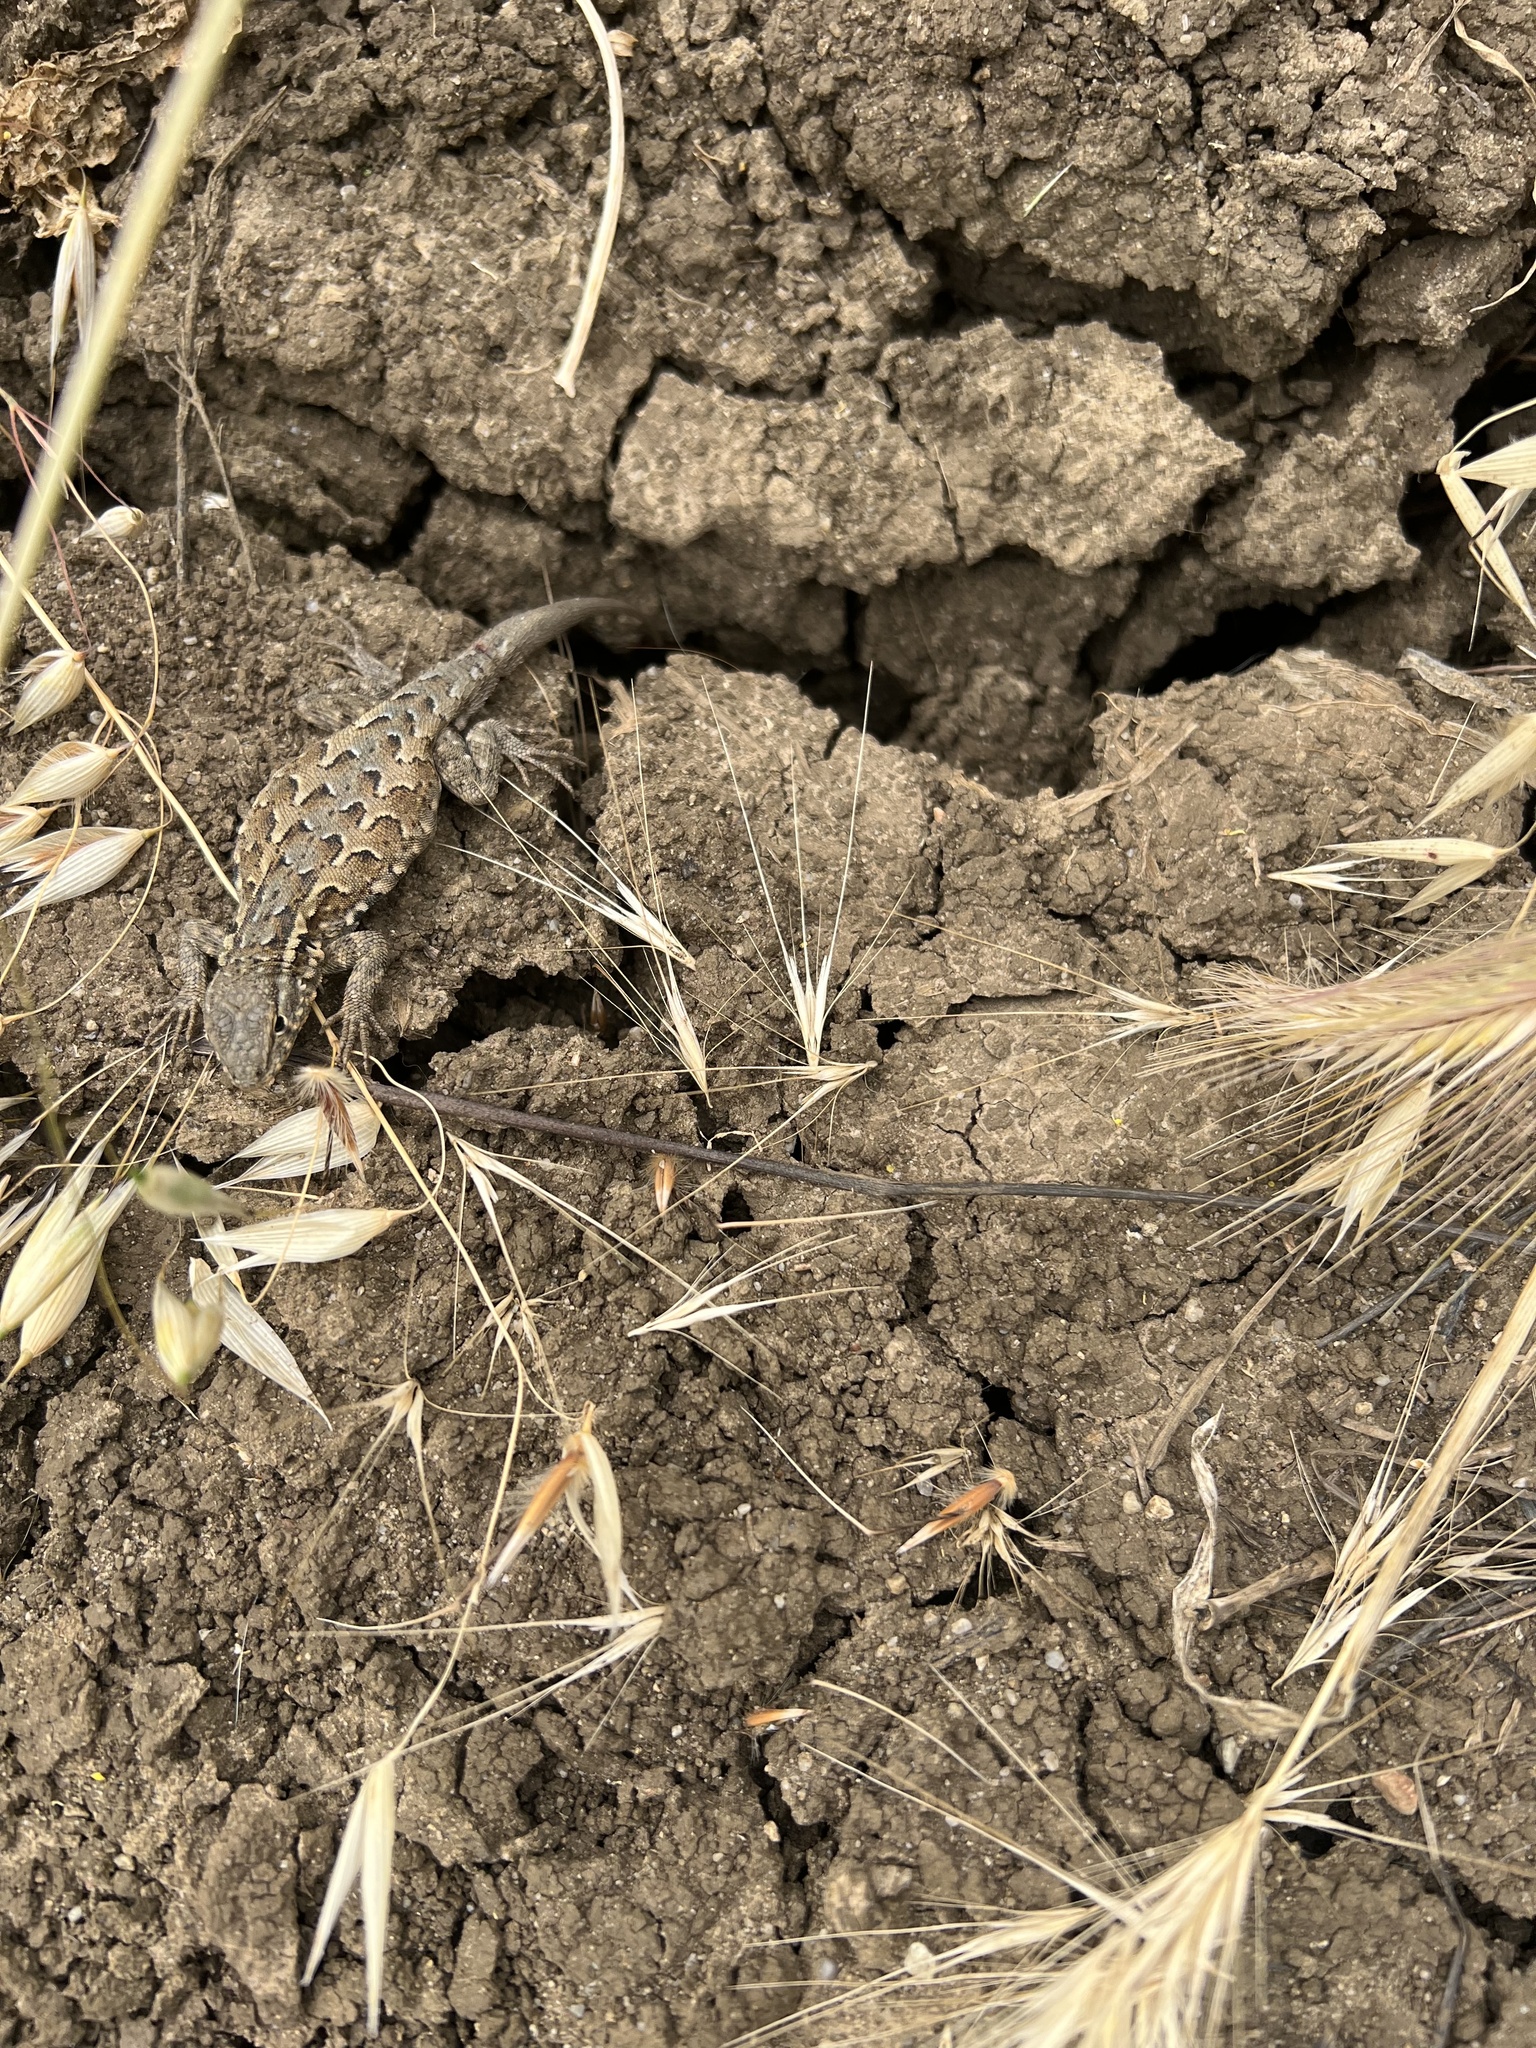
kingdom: Animalia
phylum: Chordata
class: Squamata
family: Phrynosomatidae
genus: Uta
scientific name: Uta stansburiana
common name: Side-blotched lizard
